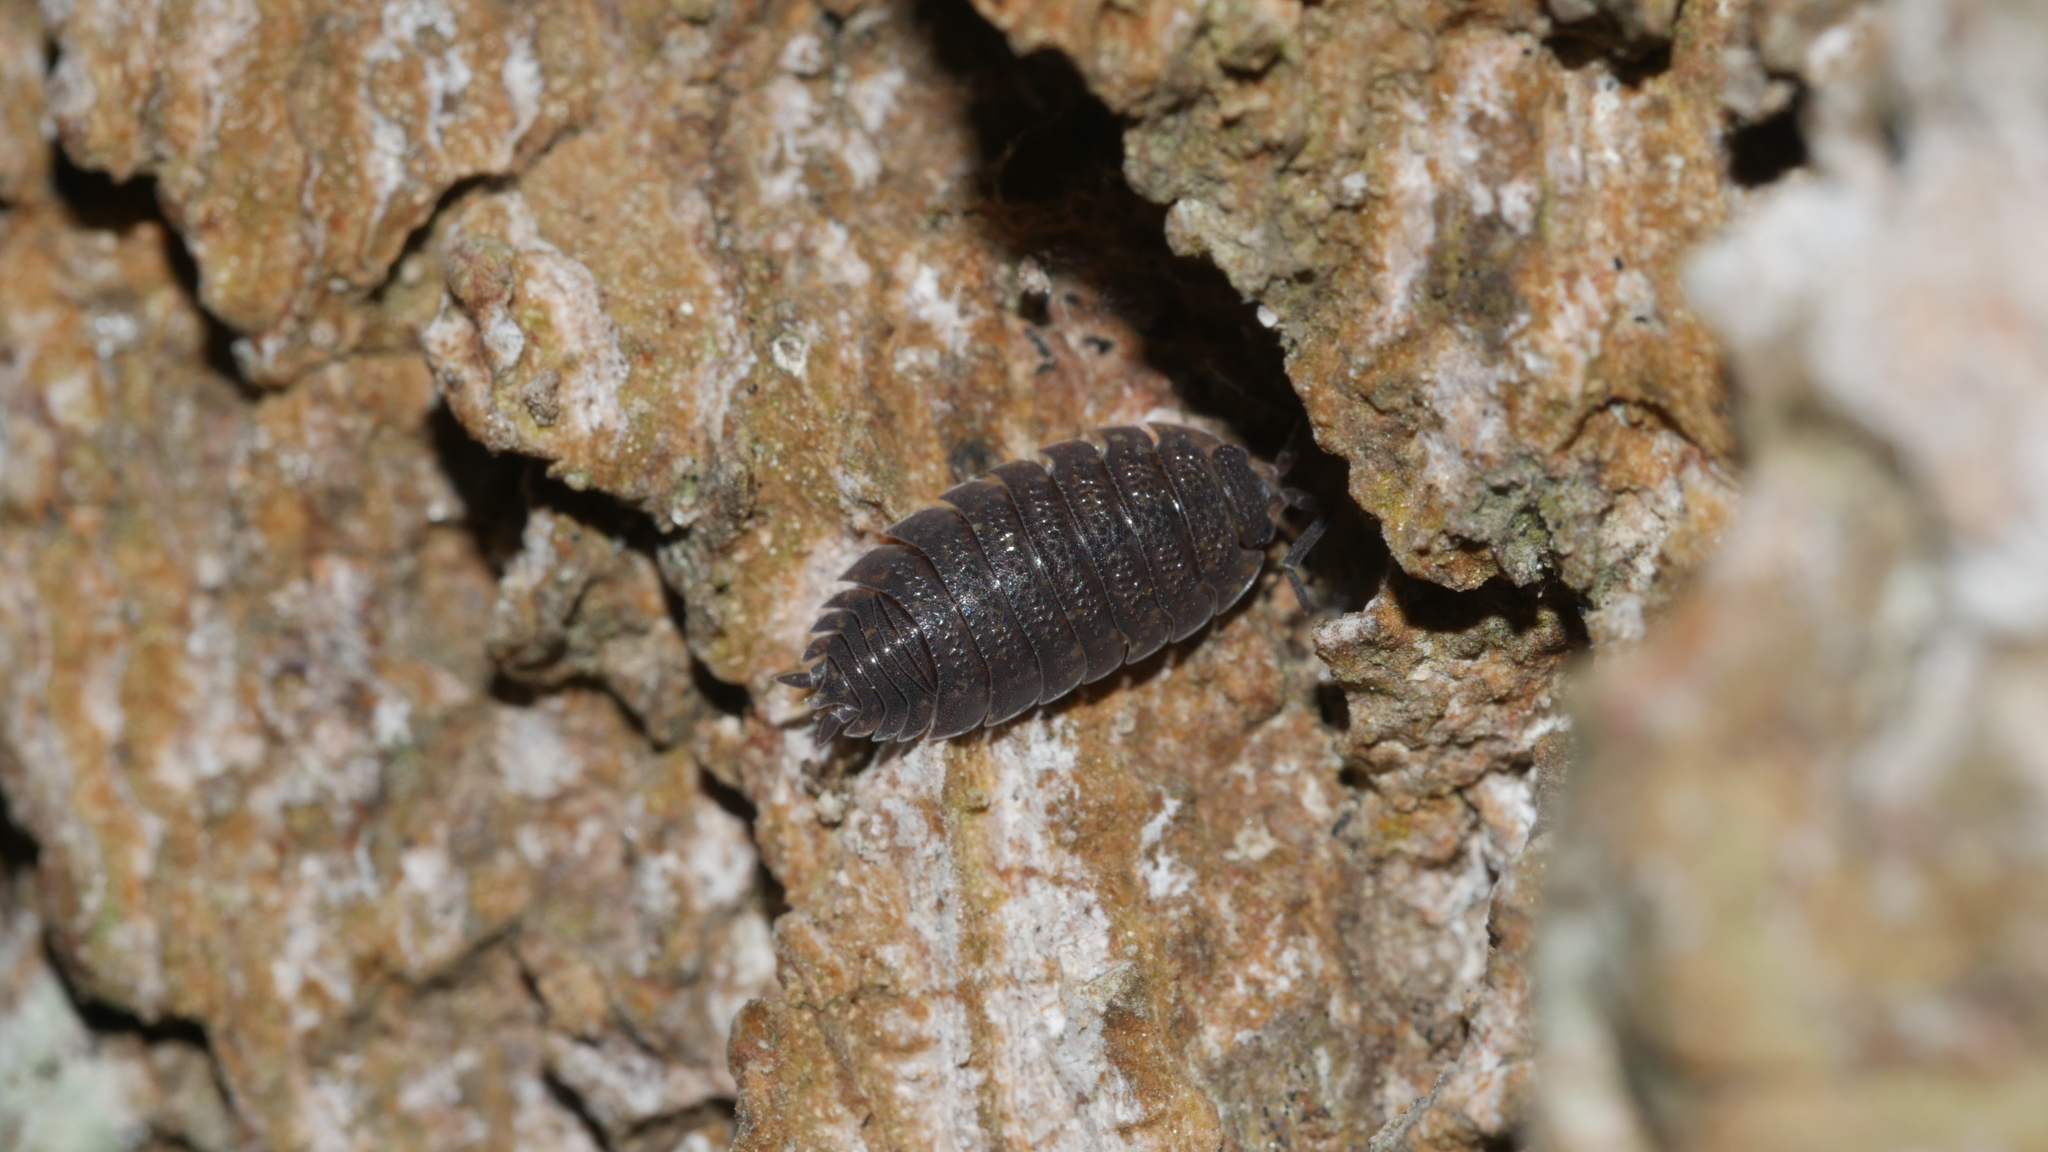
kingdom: Animalia
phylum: Arthropoda
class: Malacostraca
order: Isopoda
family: Porcellionidae
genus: Porcellio
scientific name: Porcellio scaber
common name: Common rough woodlouse
